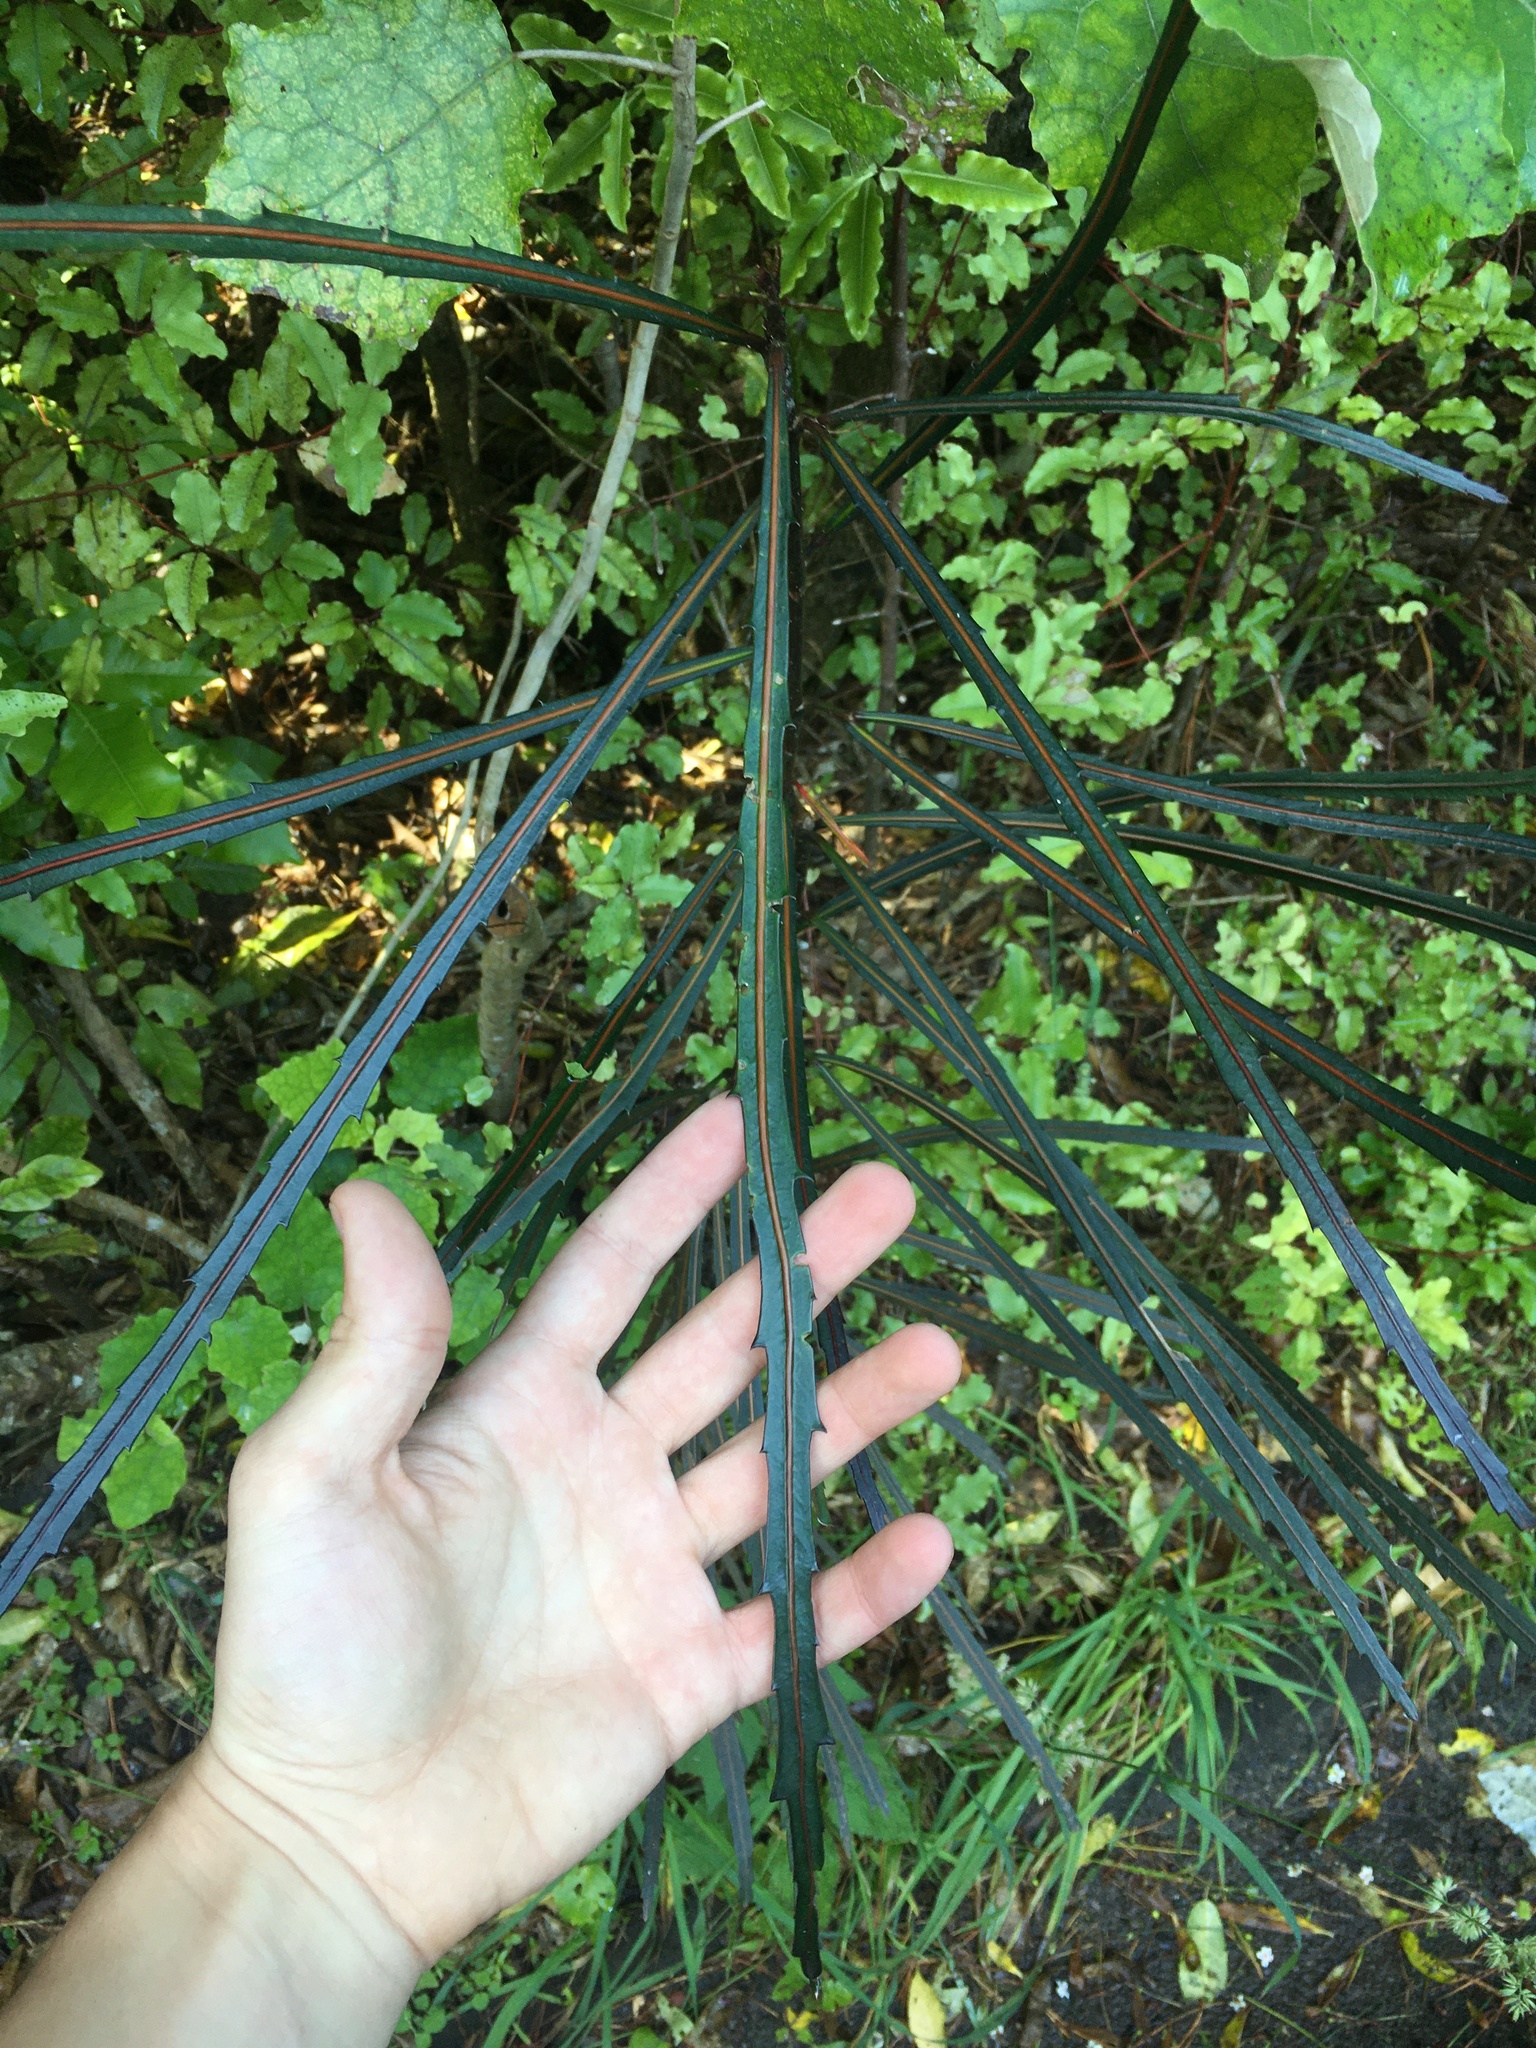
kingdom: Plantae
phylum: Tracheophyta
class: Magnoliopsida
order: Apiales
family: Araliaceae
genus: Pseudopanax
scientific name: Pseudopanax crassifolius
